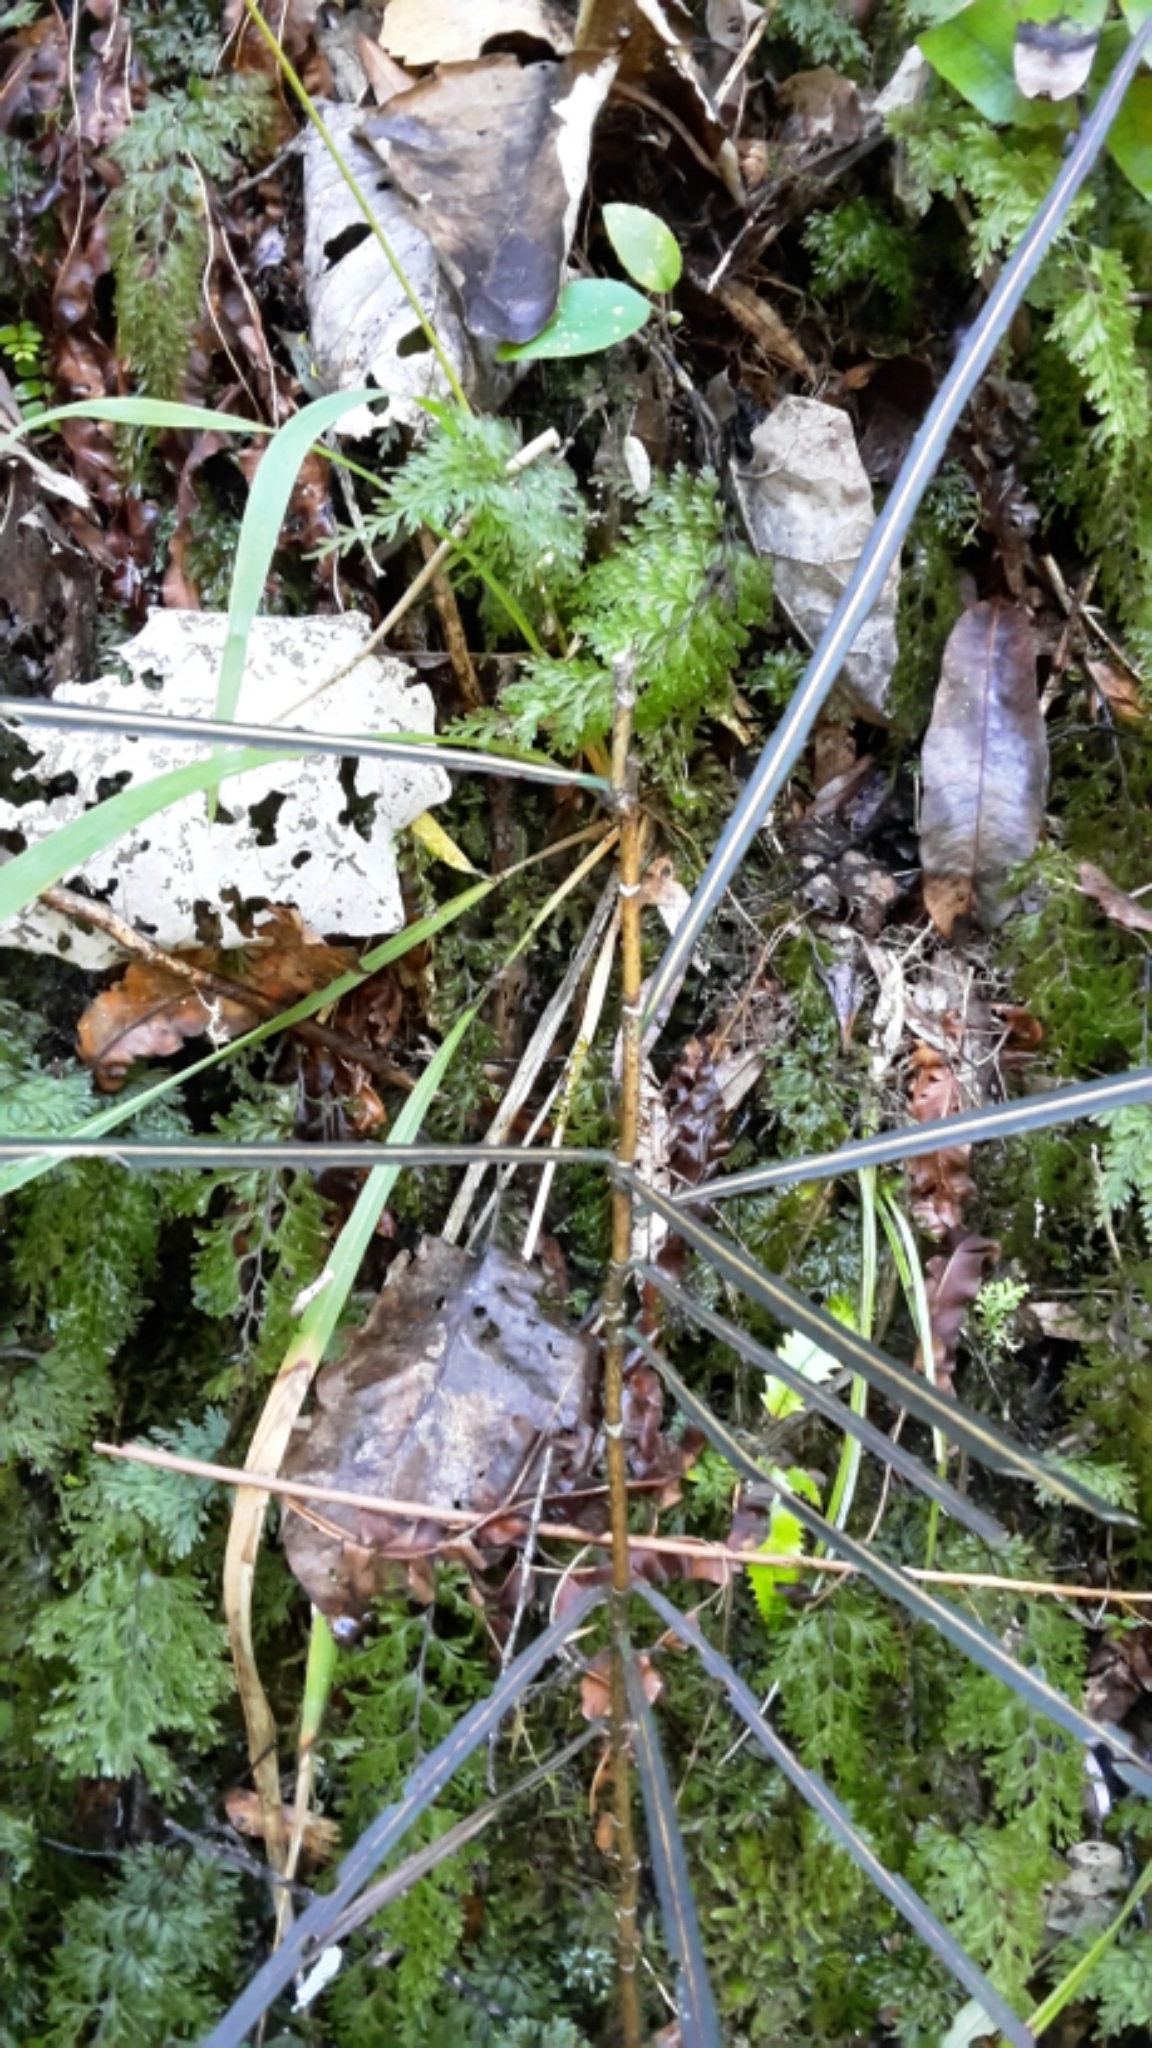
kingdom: Plantae
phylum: Tracheophyta
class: Magnoliopsida
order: Apiales
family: Araliaceae
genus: Pseudopanax
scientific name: Pseudopanax crassifolius
